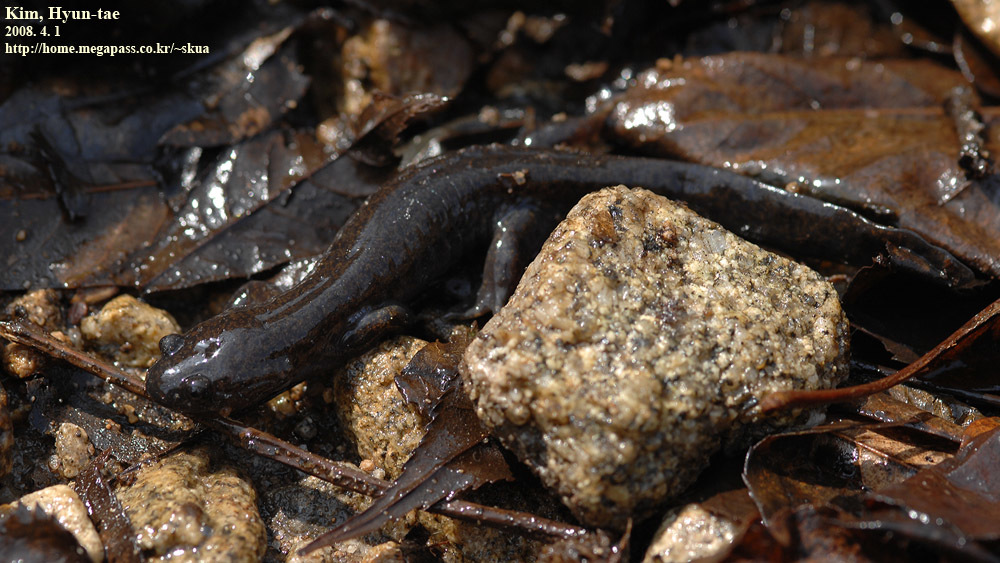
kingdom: Animalia
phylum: Chordata
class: Amphibia
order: Caudata
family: Hynobiidae
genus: Hynobius
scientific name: Hynobius leechii
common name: Gensan salamander
